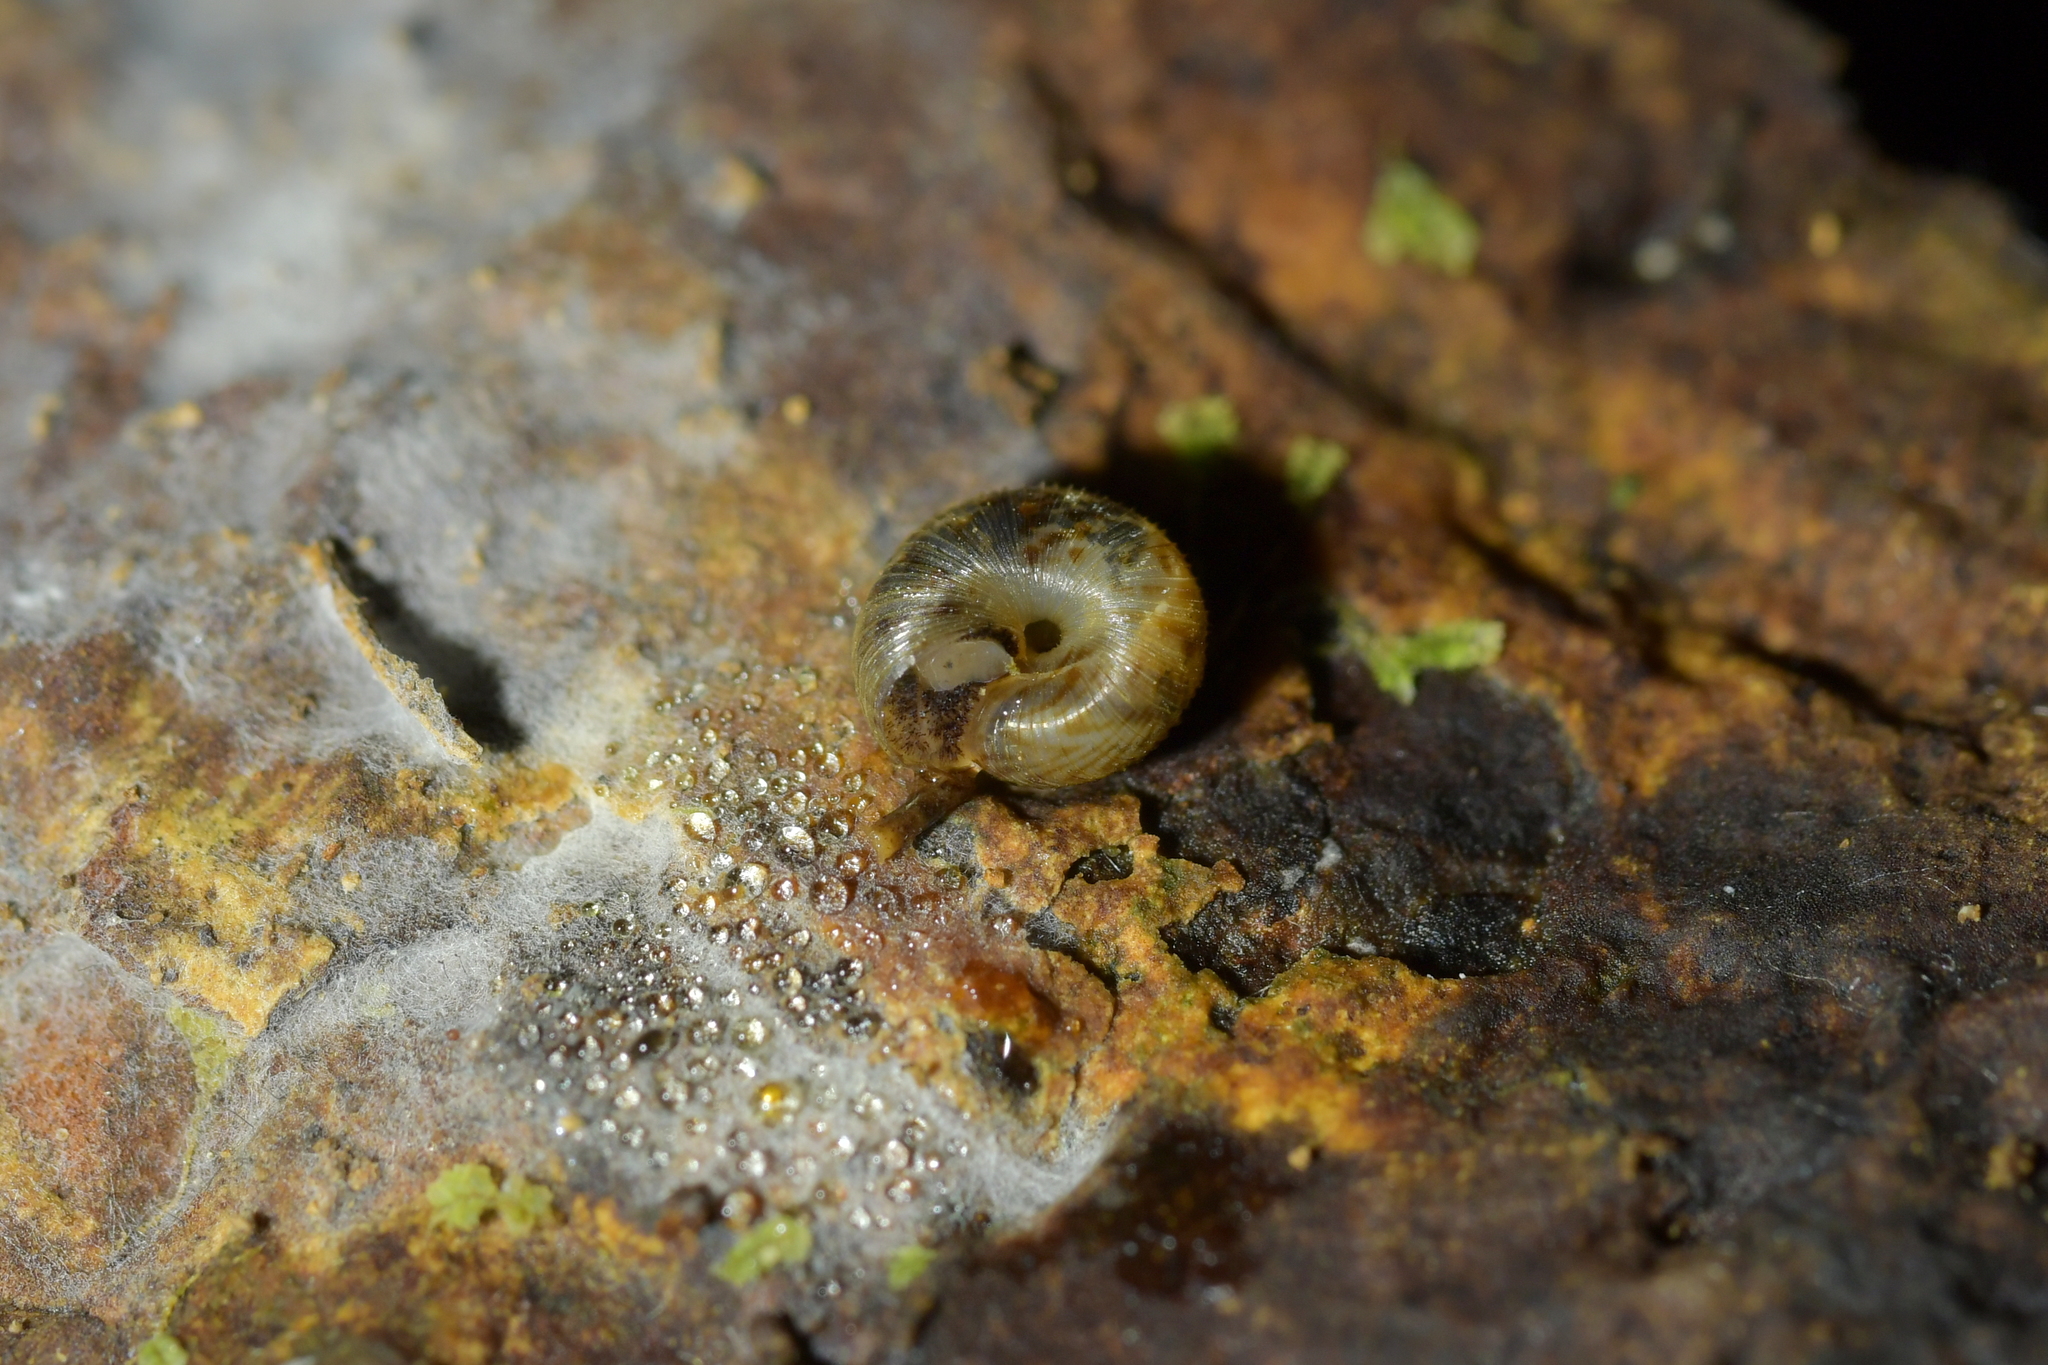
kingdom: Animalia
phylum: Mollusca
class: Gastropoda
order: Stylommatophora
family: Charopidae
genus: Chaureopa
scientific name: Chaureopa rustica
